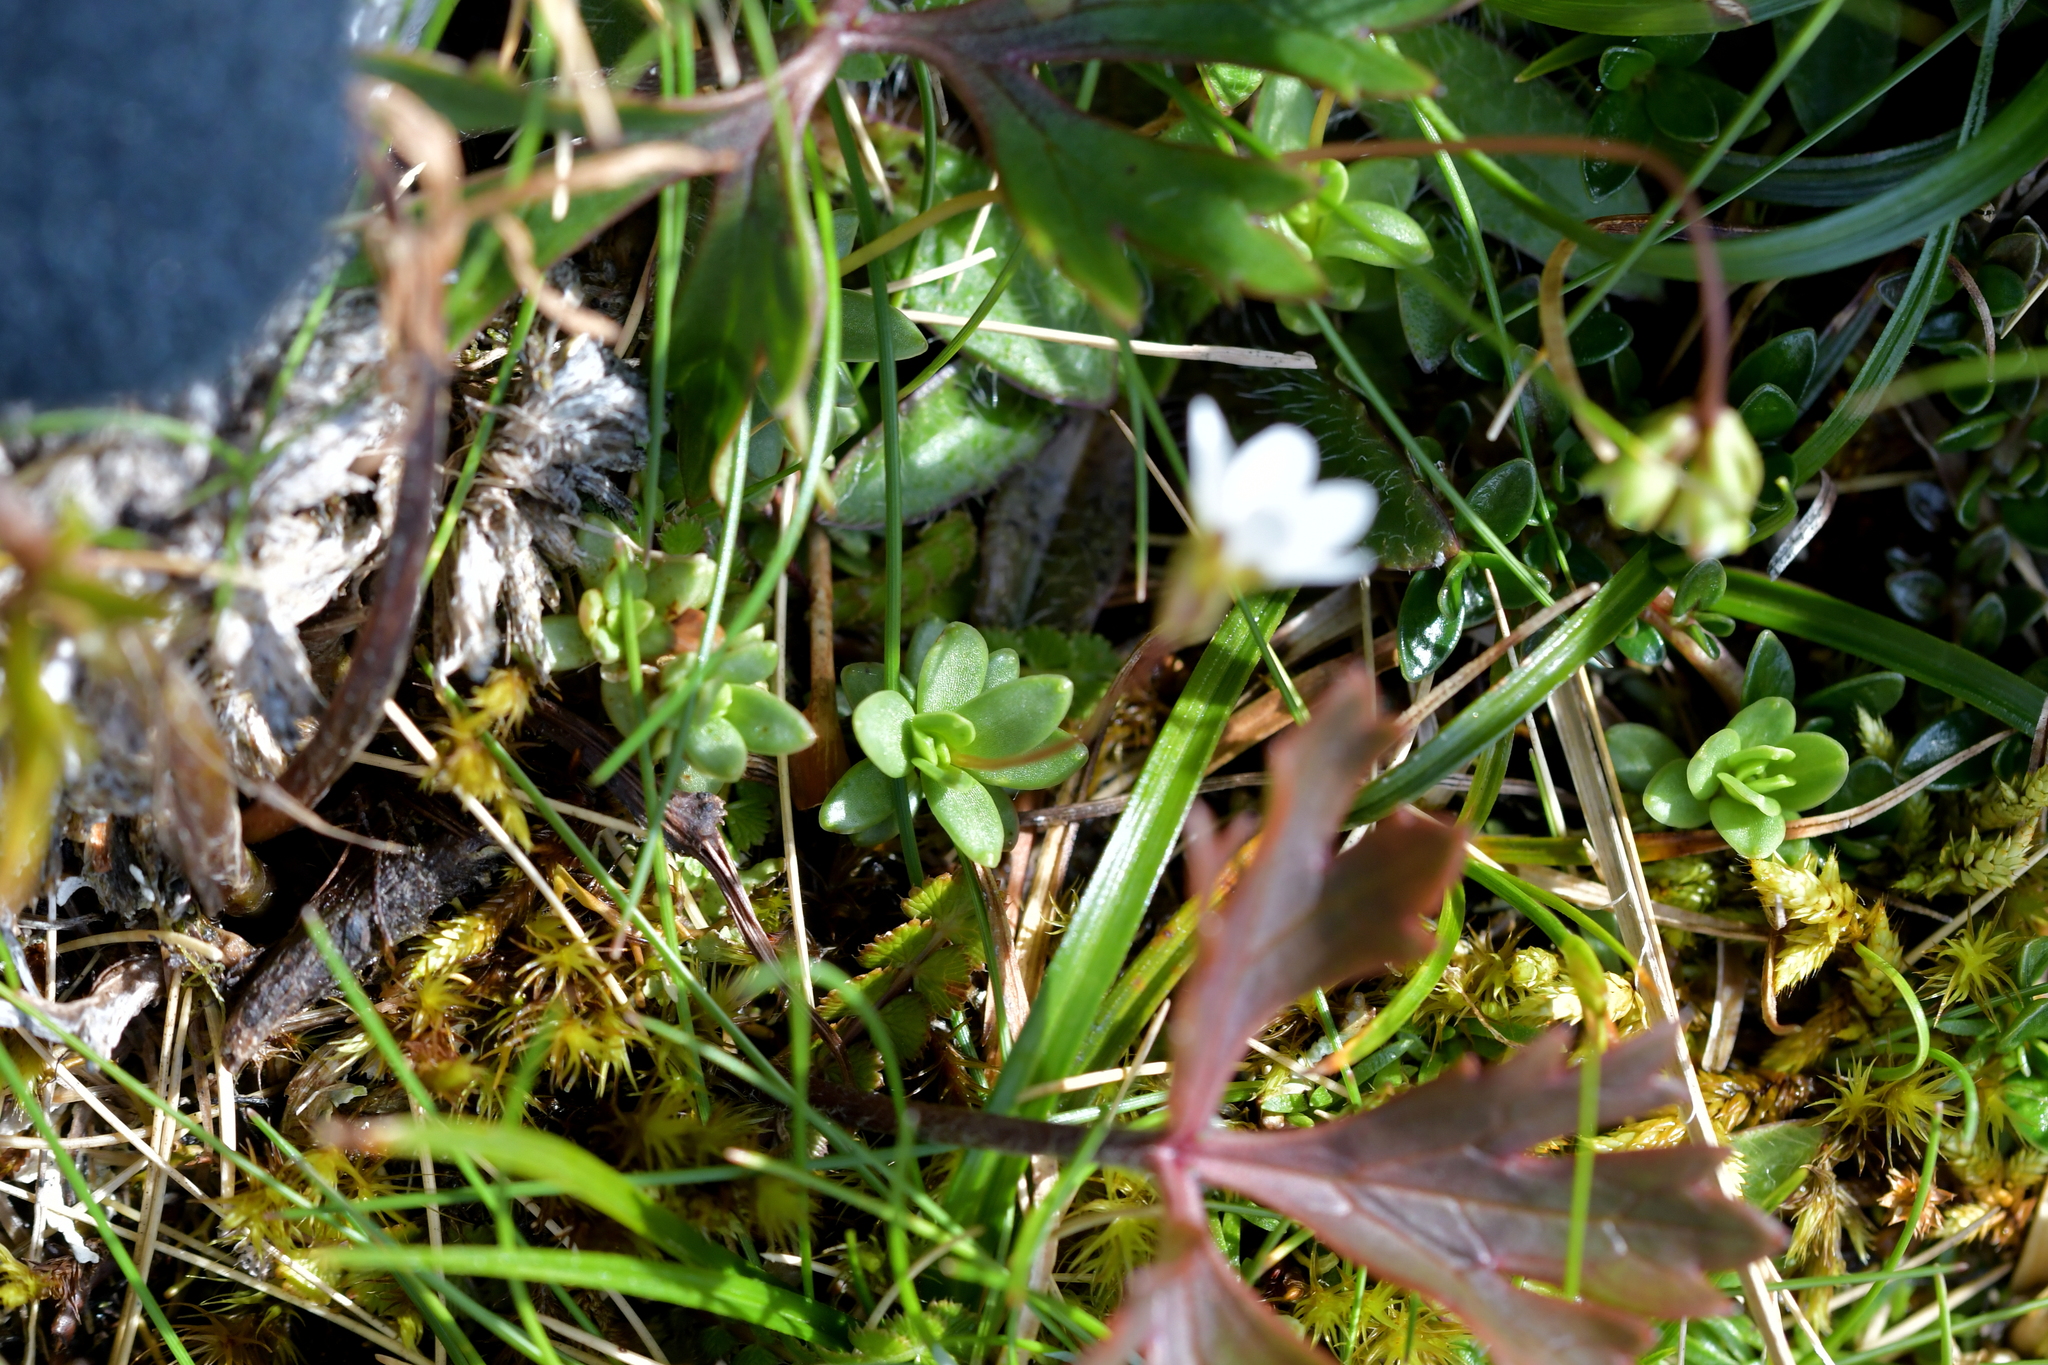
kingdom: Plantae
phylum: Tracheophyta
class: Magnoliopsida
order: Asterales
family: Stylidiaceae
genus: Forstera
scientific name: Forstera tenella
